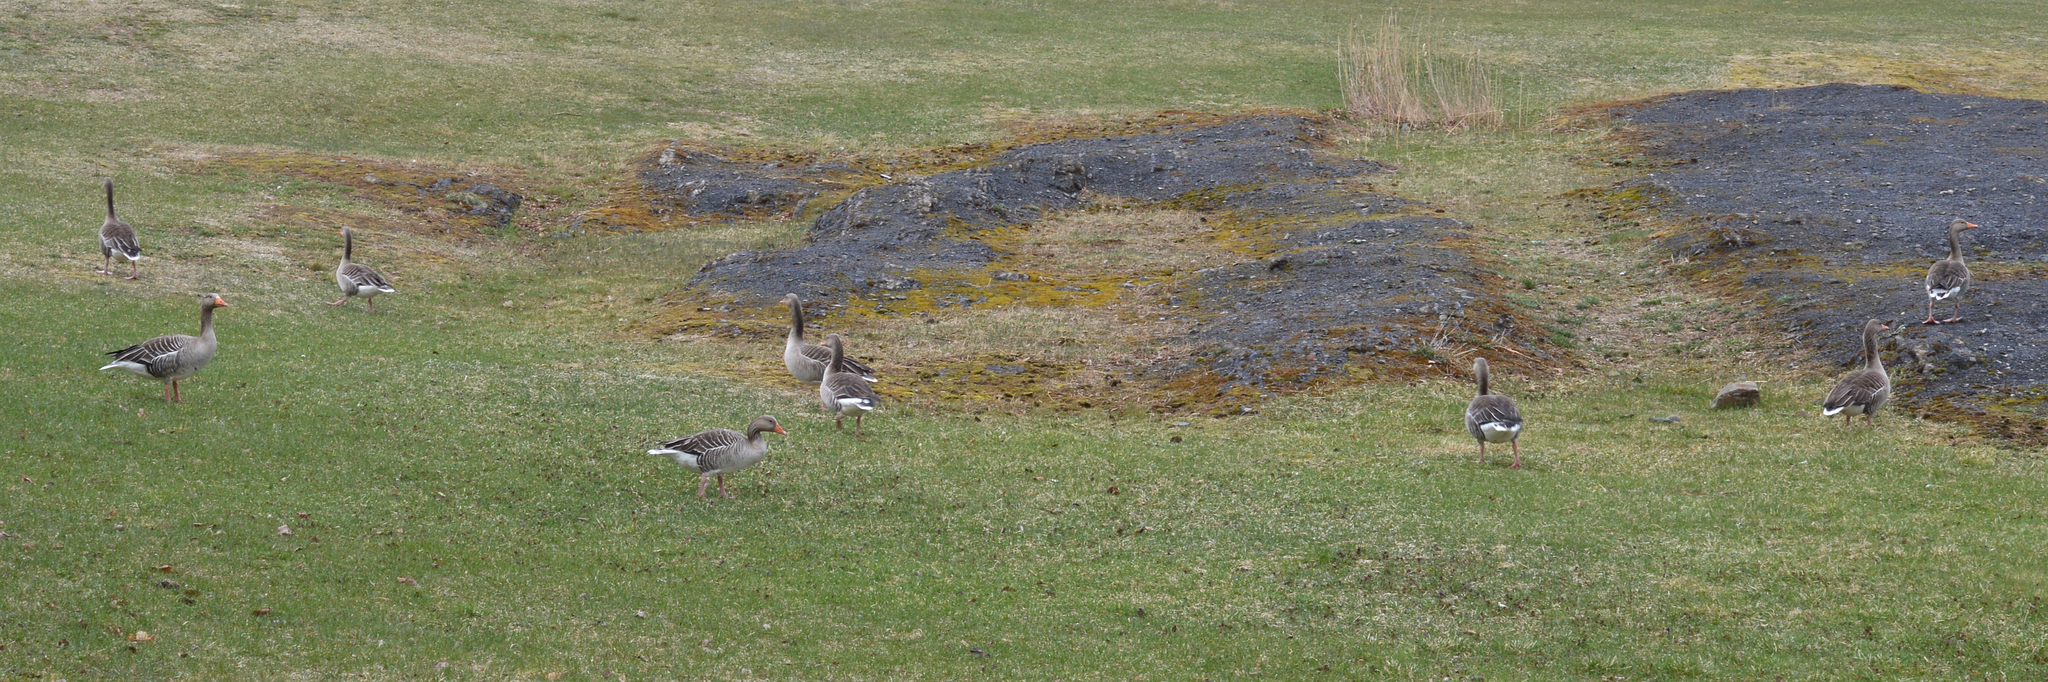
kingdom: Animalia
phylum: Chordata
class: Aves
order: Anseriformes
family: Anatidae
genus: Anser
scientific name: Anser anser
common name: Greylag goose
